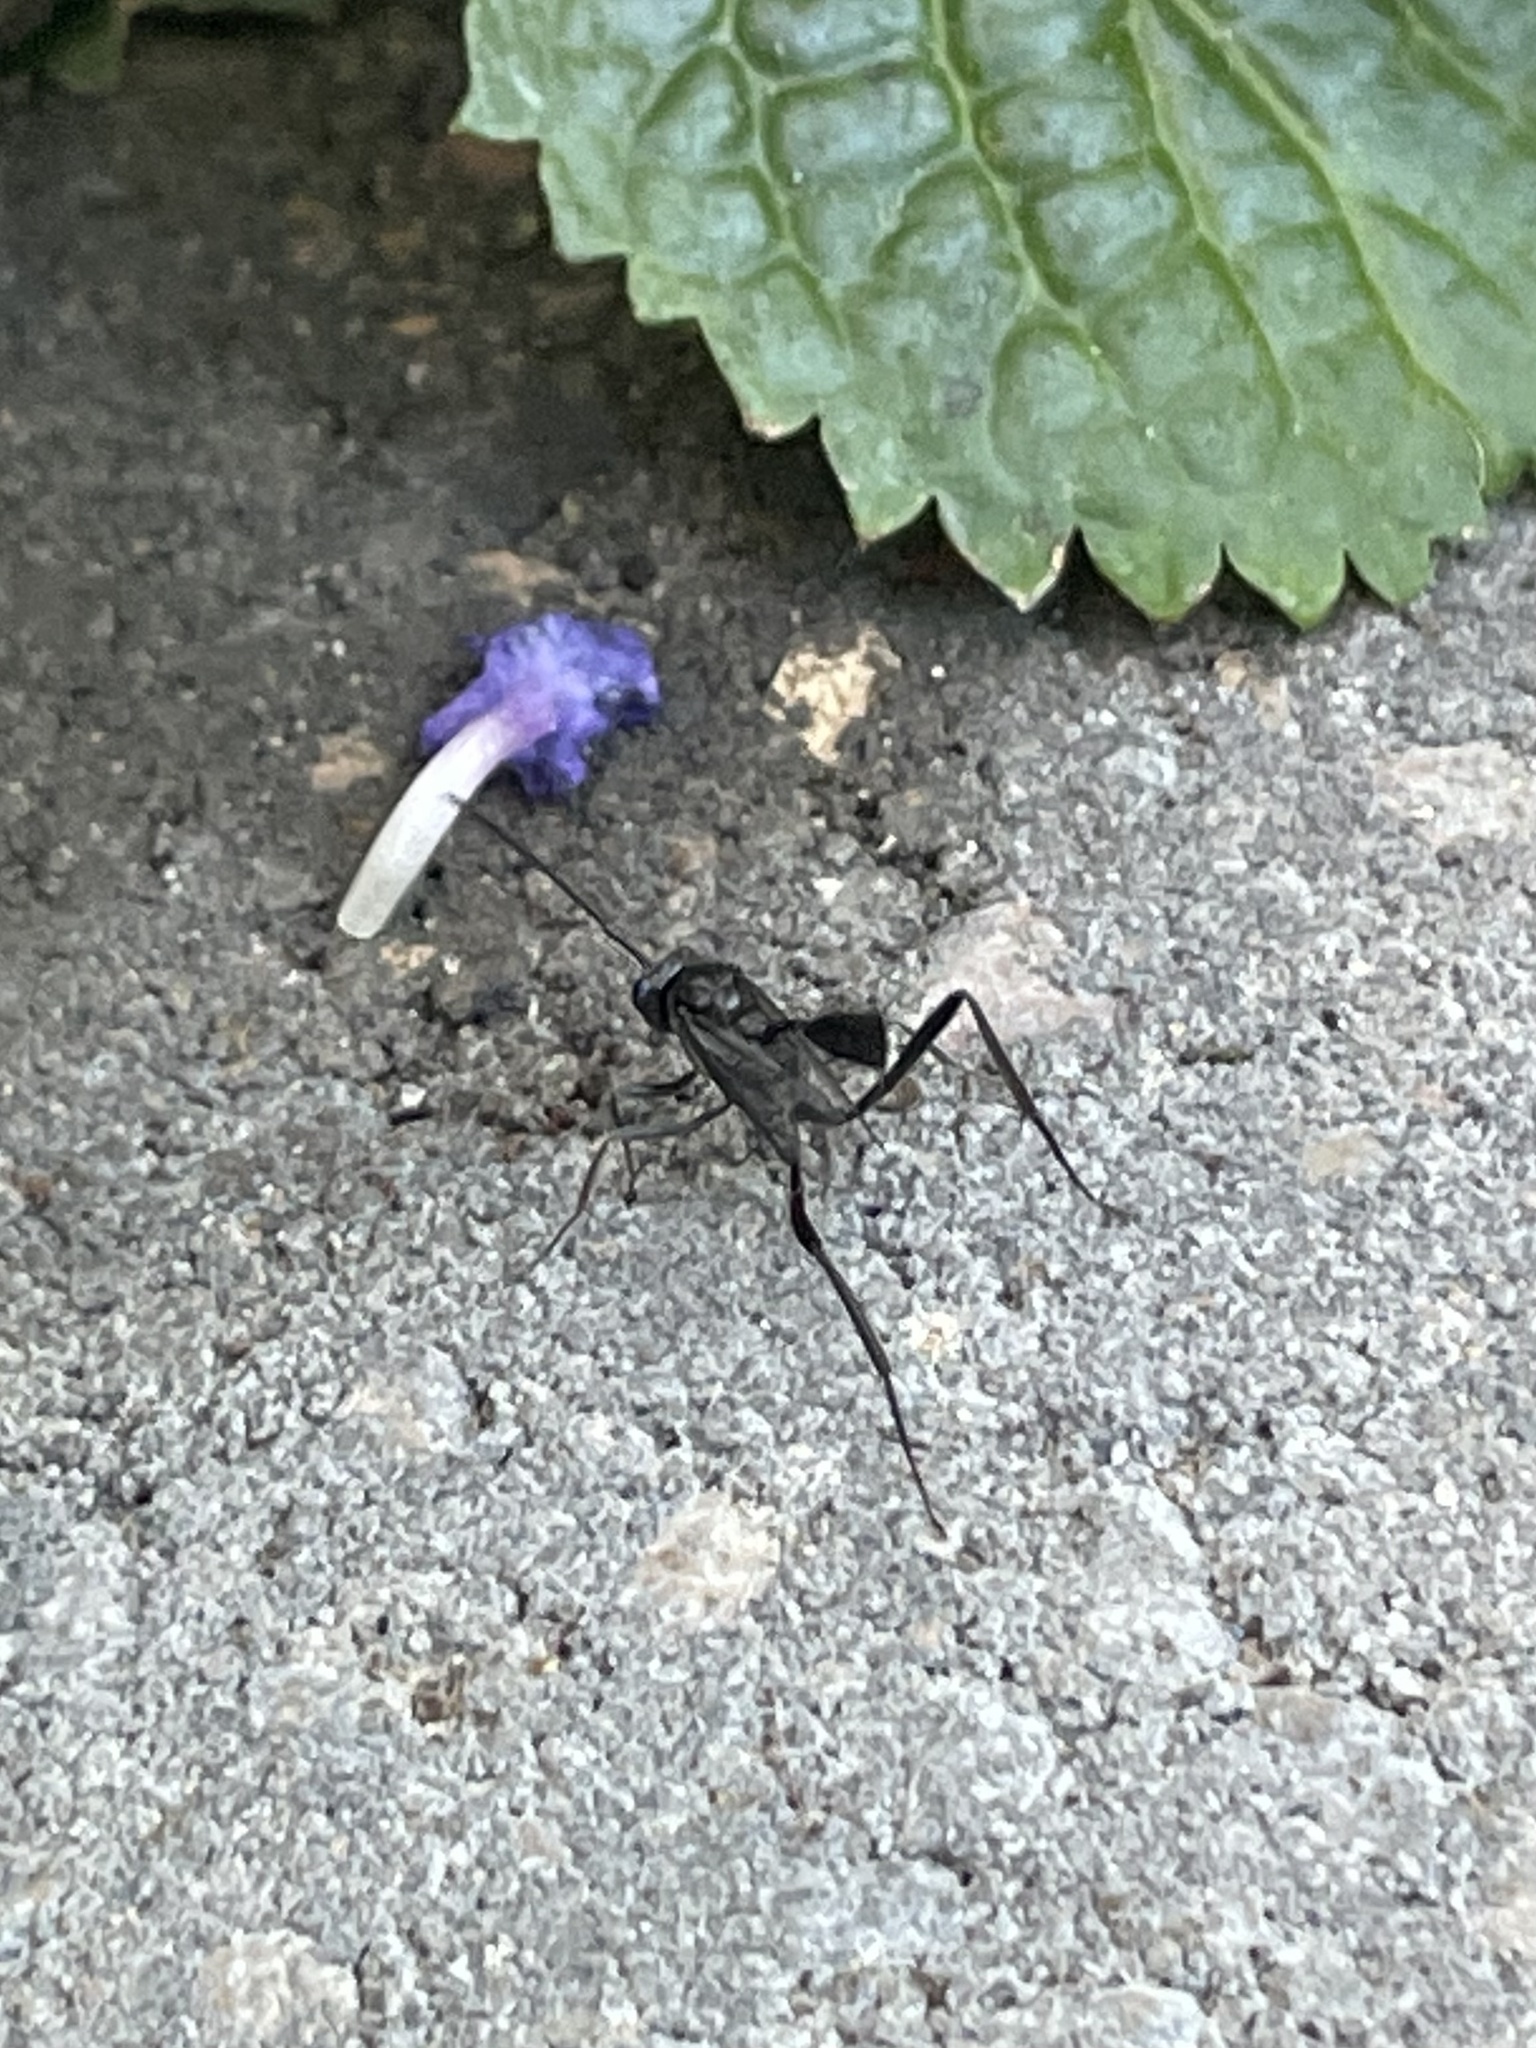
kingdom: Animalia
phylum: Arthropoda
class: Insecta
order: Hymenoptera
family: Evaniidae
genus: Evania
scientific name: Evania appendigaster
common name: Ensign wasp
